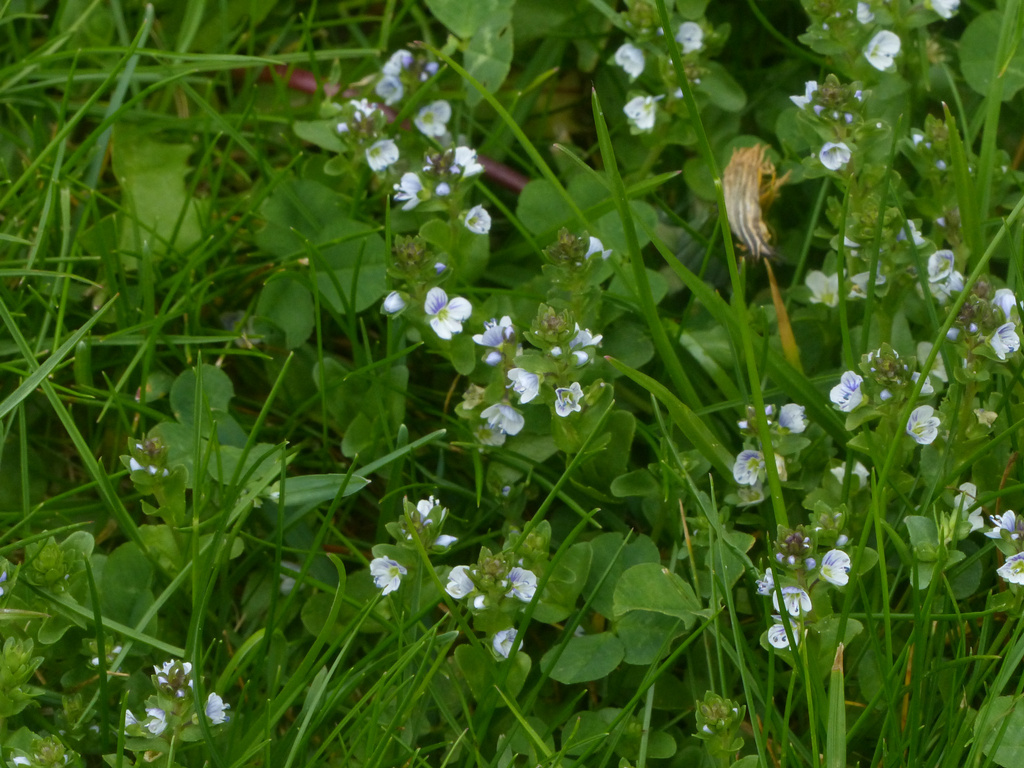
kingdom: Plantae
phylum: Tracheophyta
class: Magnoliopsida
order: Lamiales
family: Plantaginaceae
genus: Veronica
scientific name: Veronica serpyllifolia
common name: Thyme-leaved speedwell
